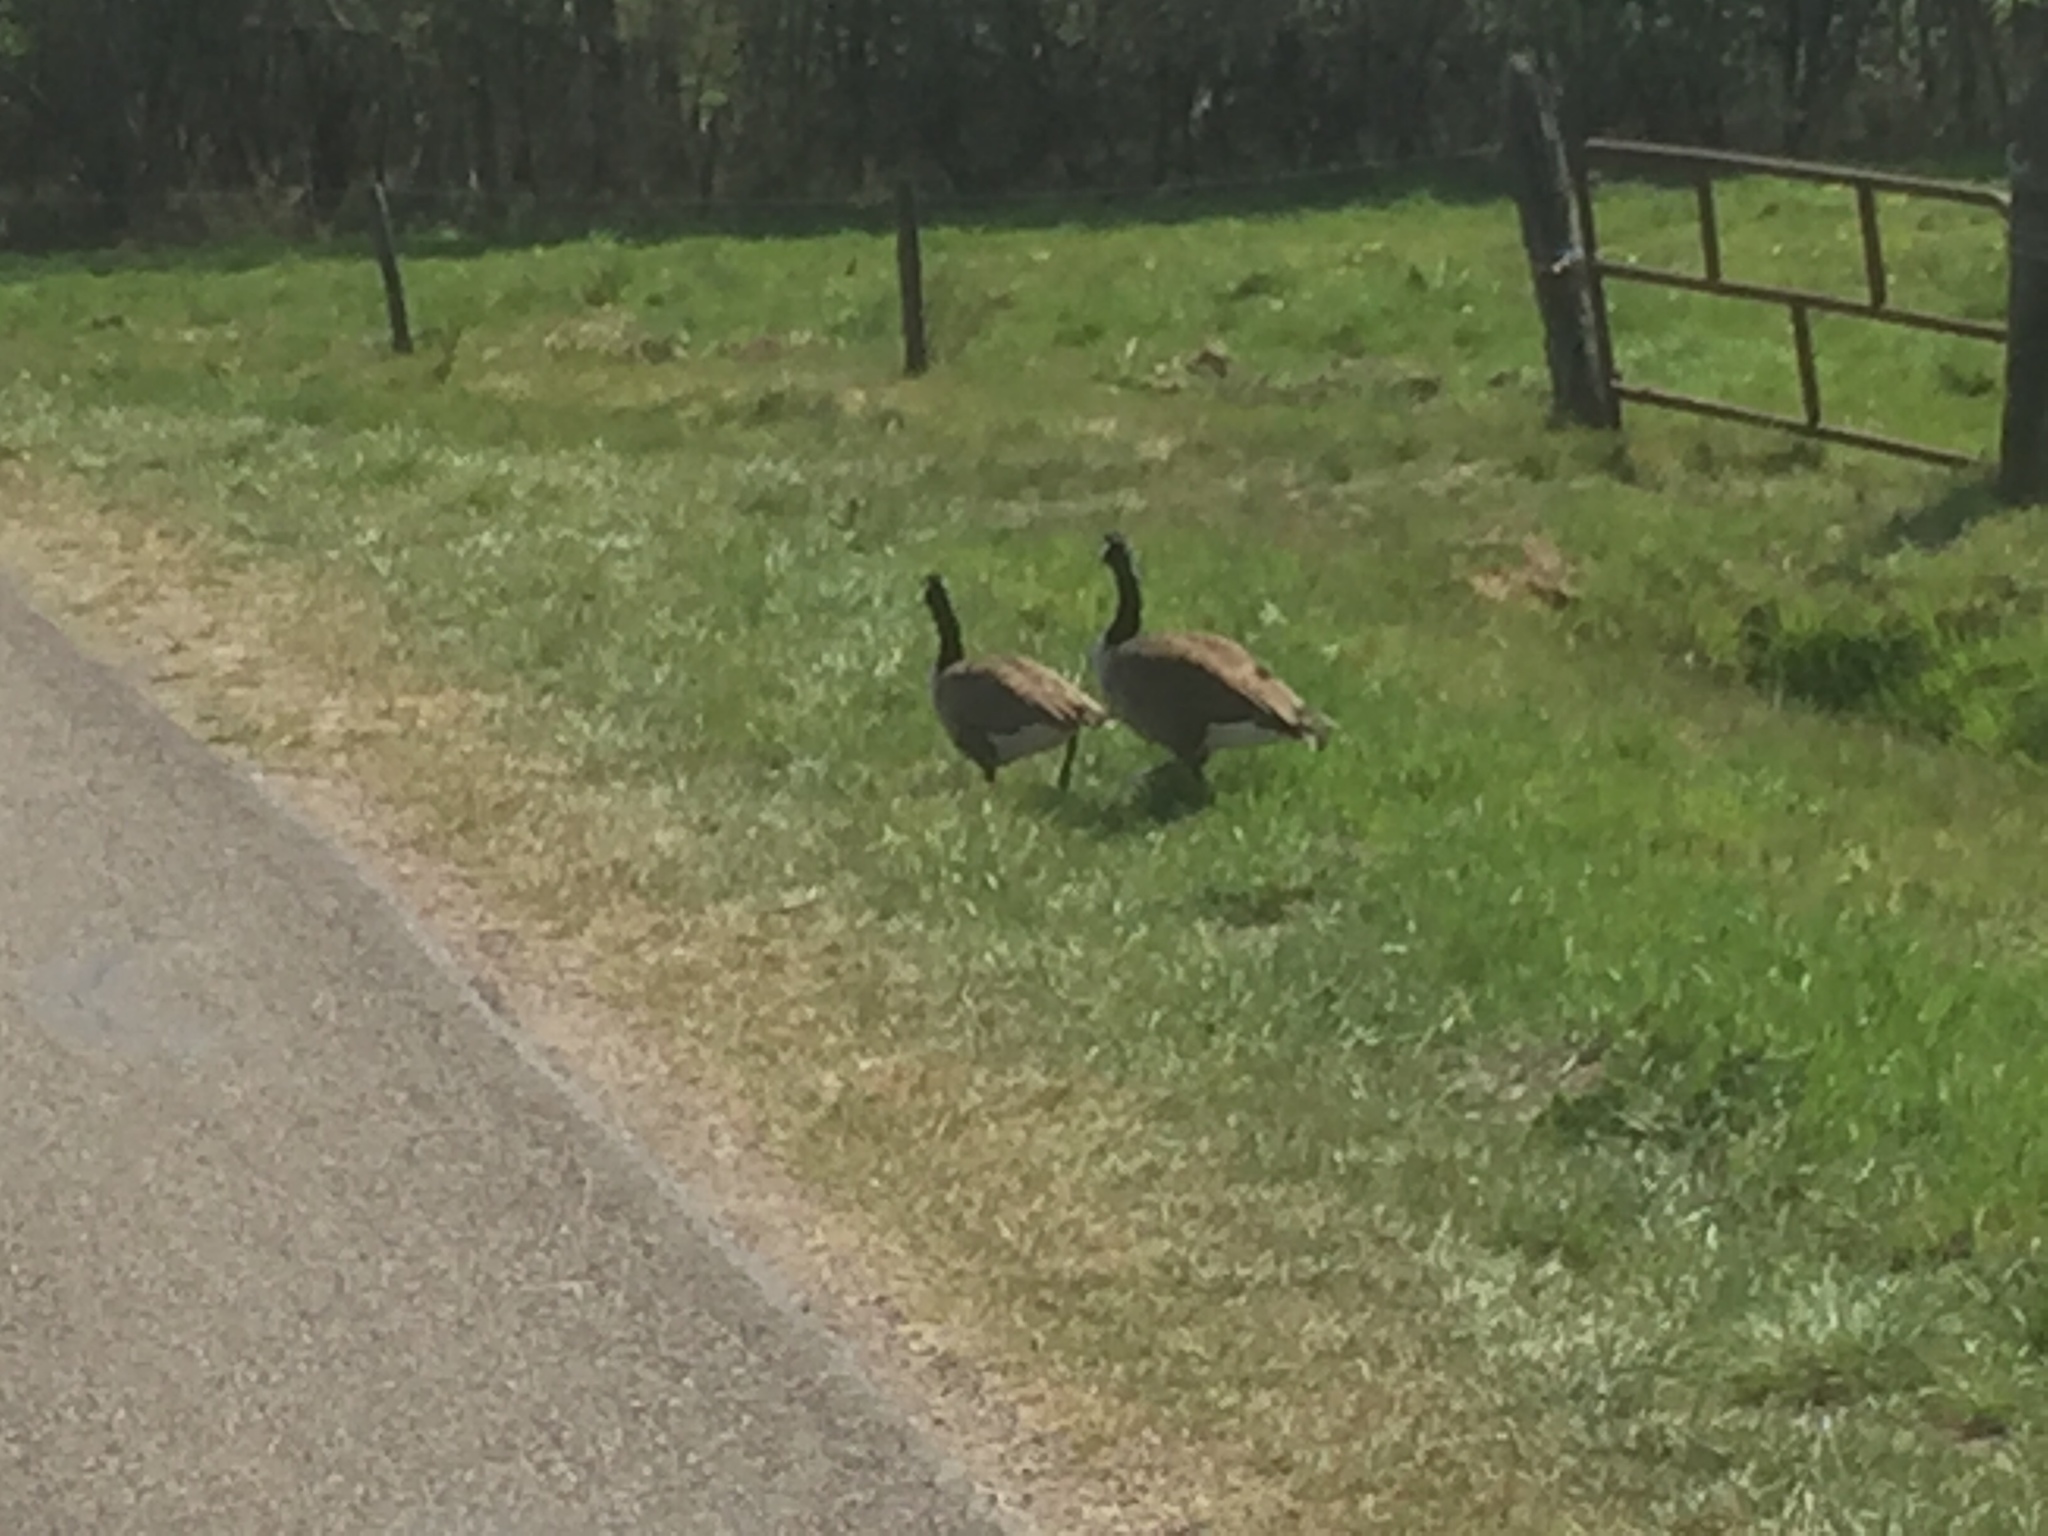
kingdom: Animalia
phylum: Chordata
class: Aves
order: Anseriformes
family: Anatidae
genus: Branta
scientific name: Branta canadensis
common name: Canada goose
